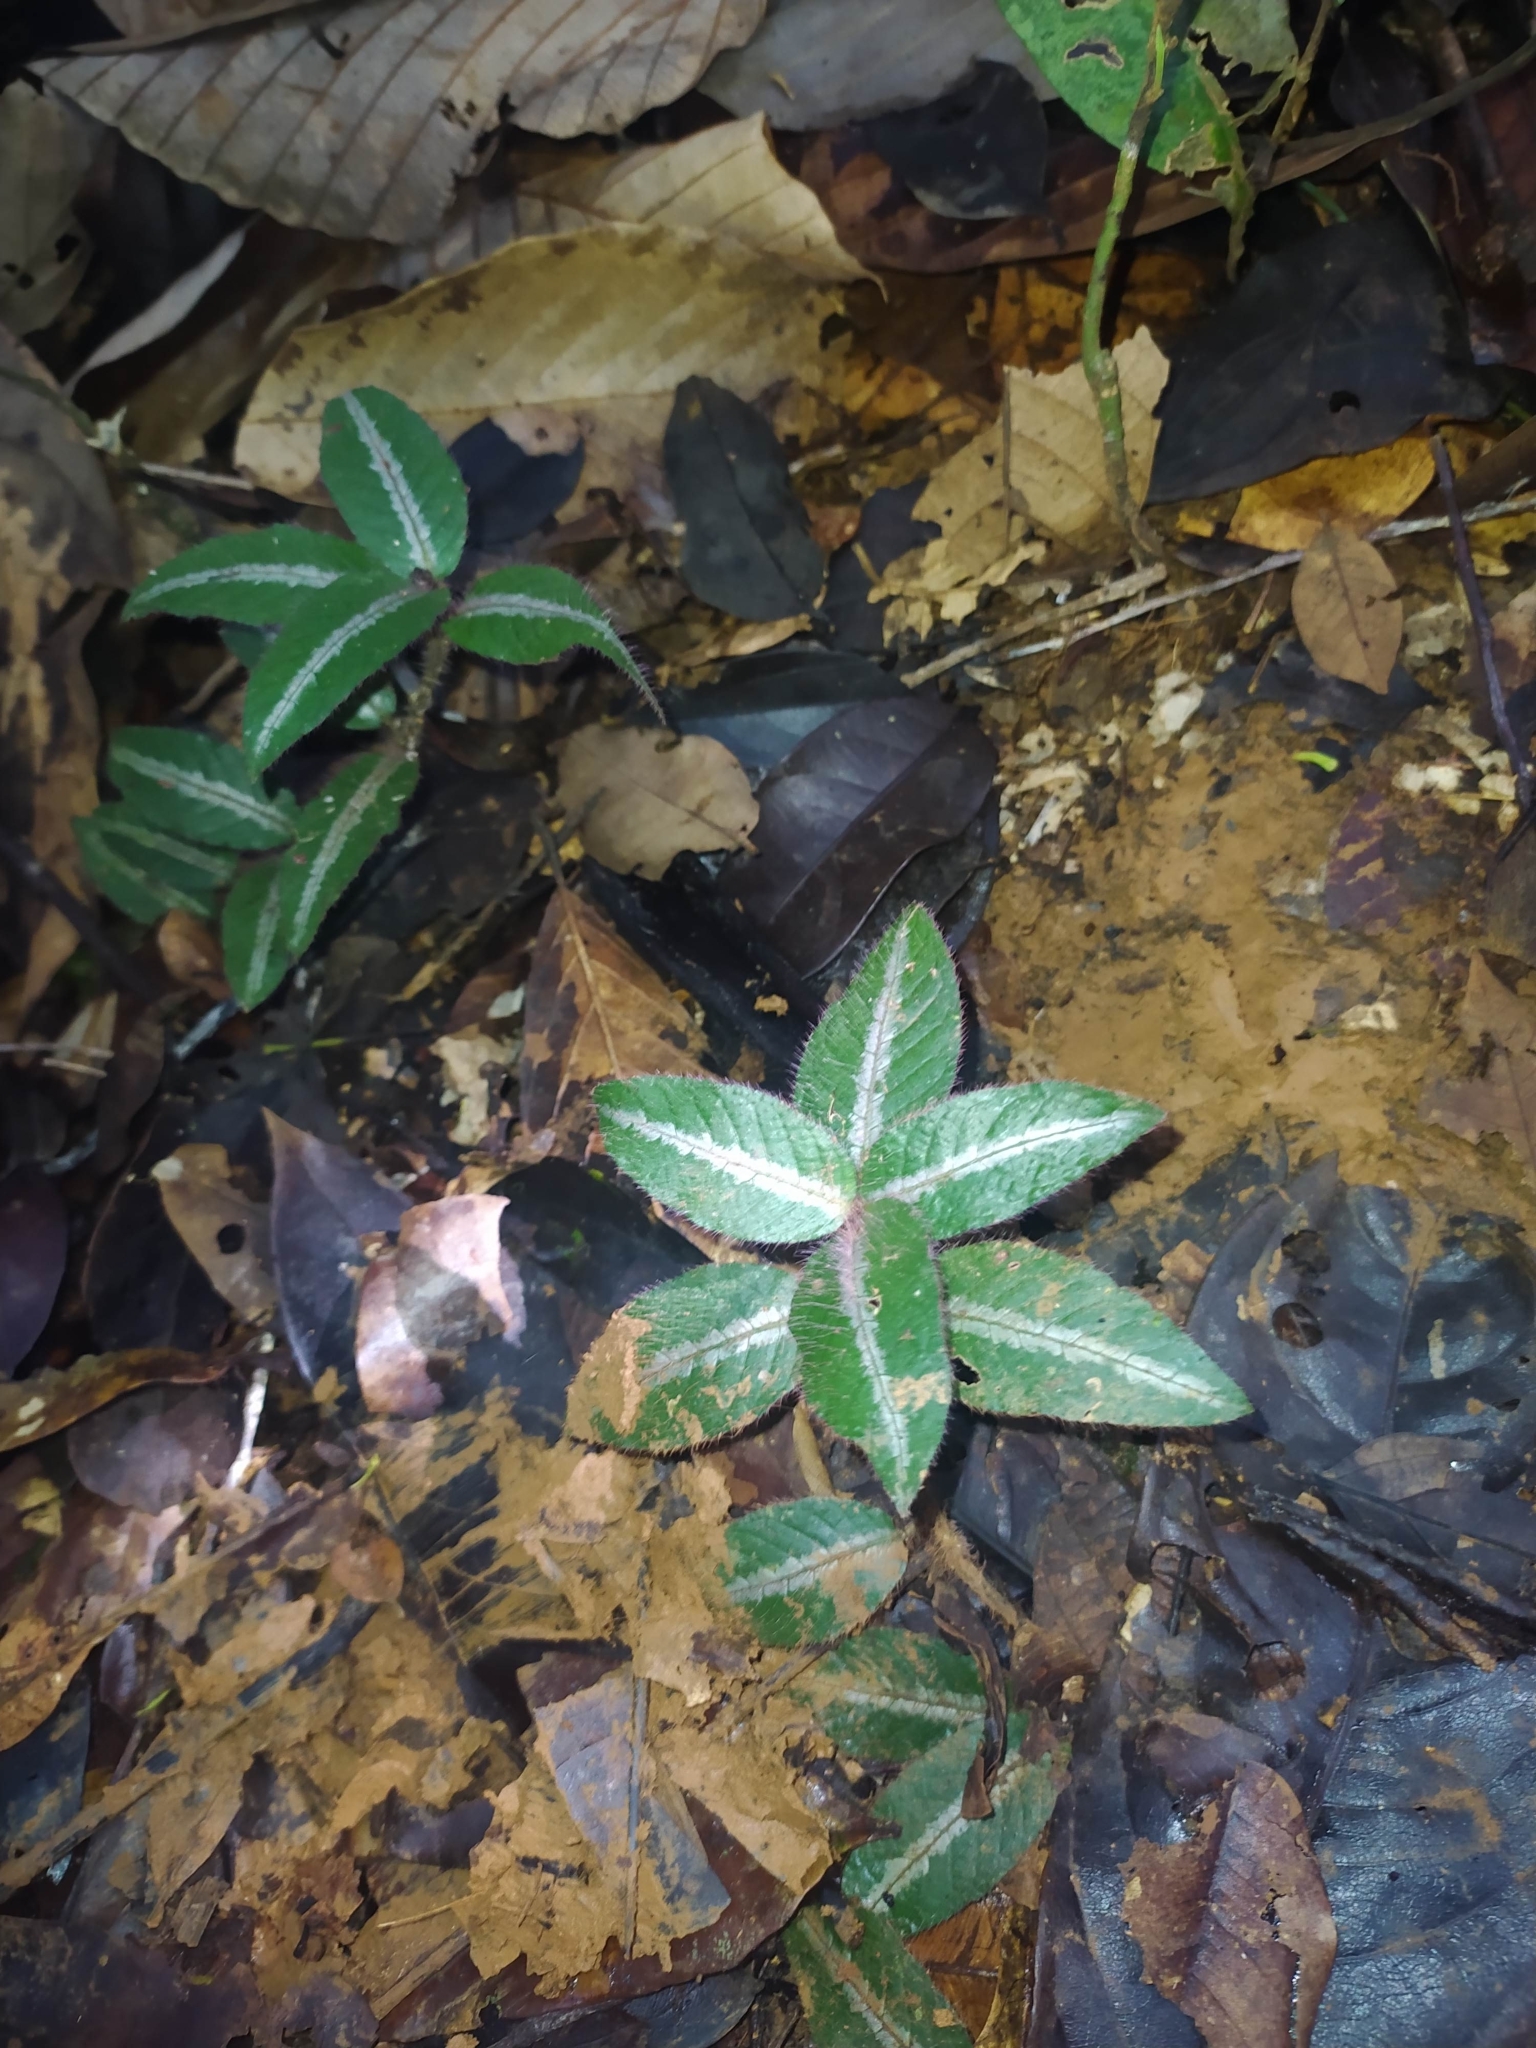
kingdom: Plantae
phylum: Tracheophyta
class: Magnoliopsida
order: Gentianales
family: Rubiaceae
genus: Palicourea
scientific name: Palicourea debilis
